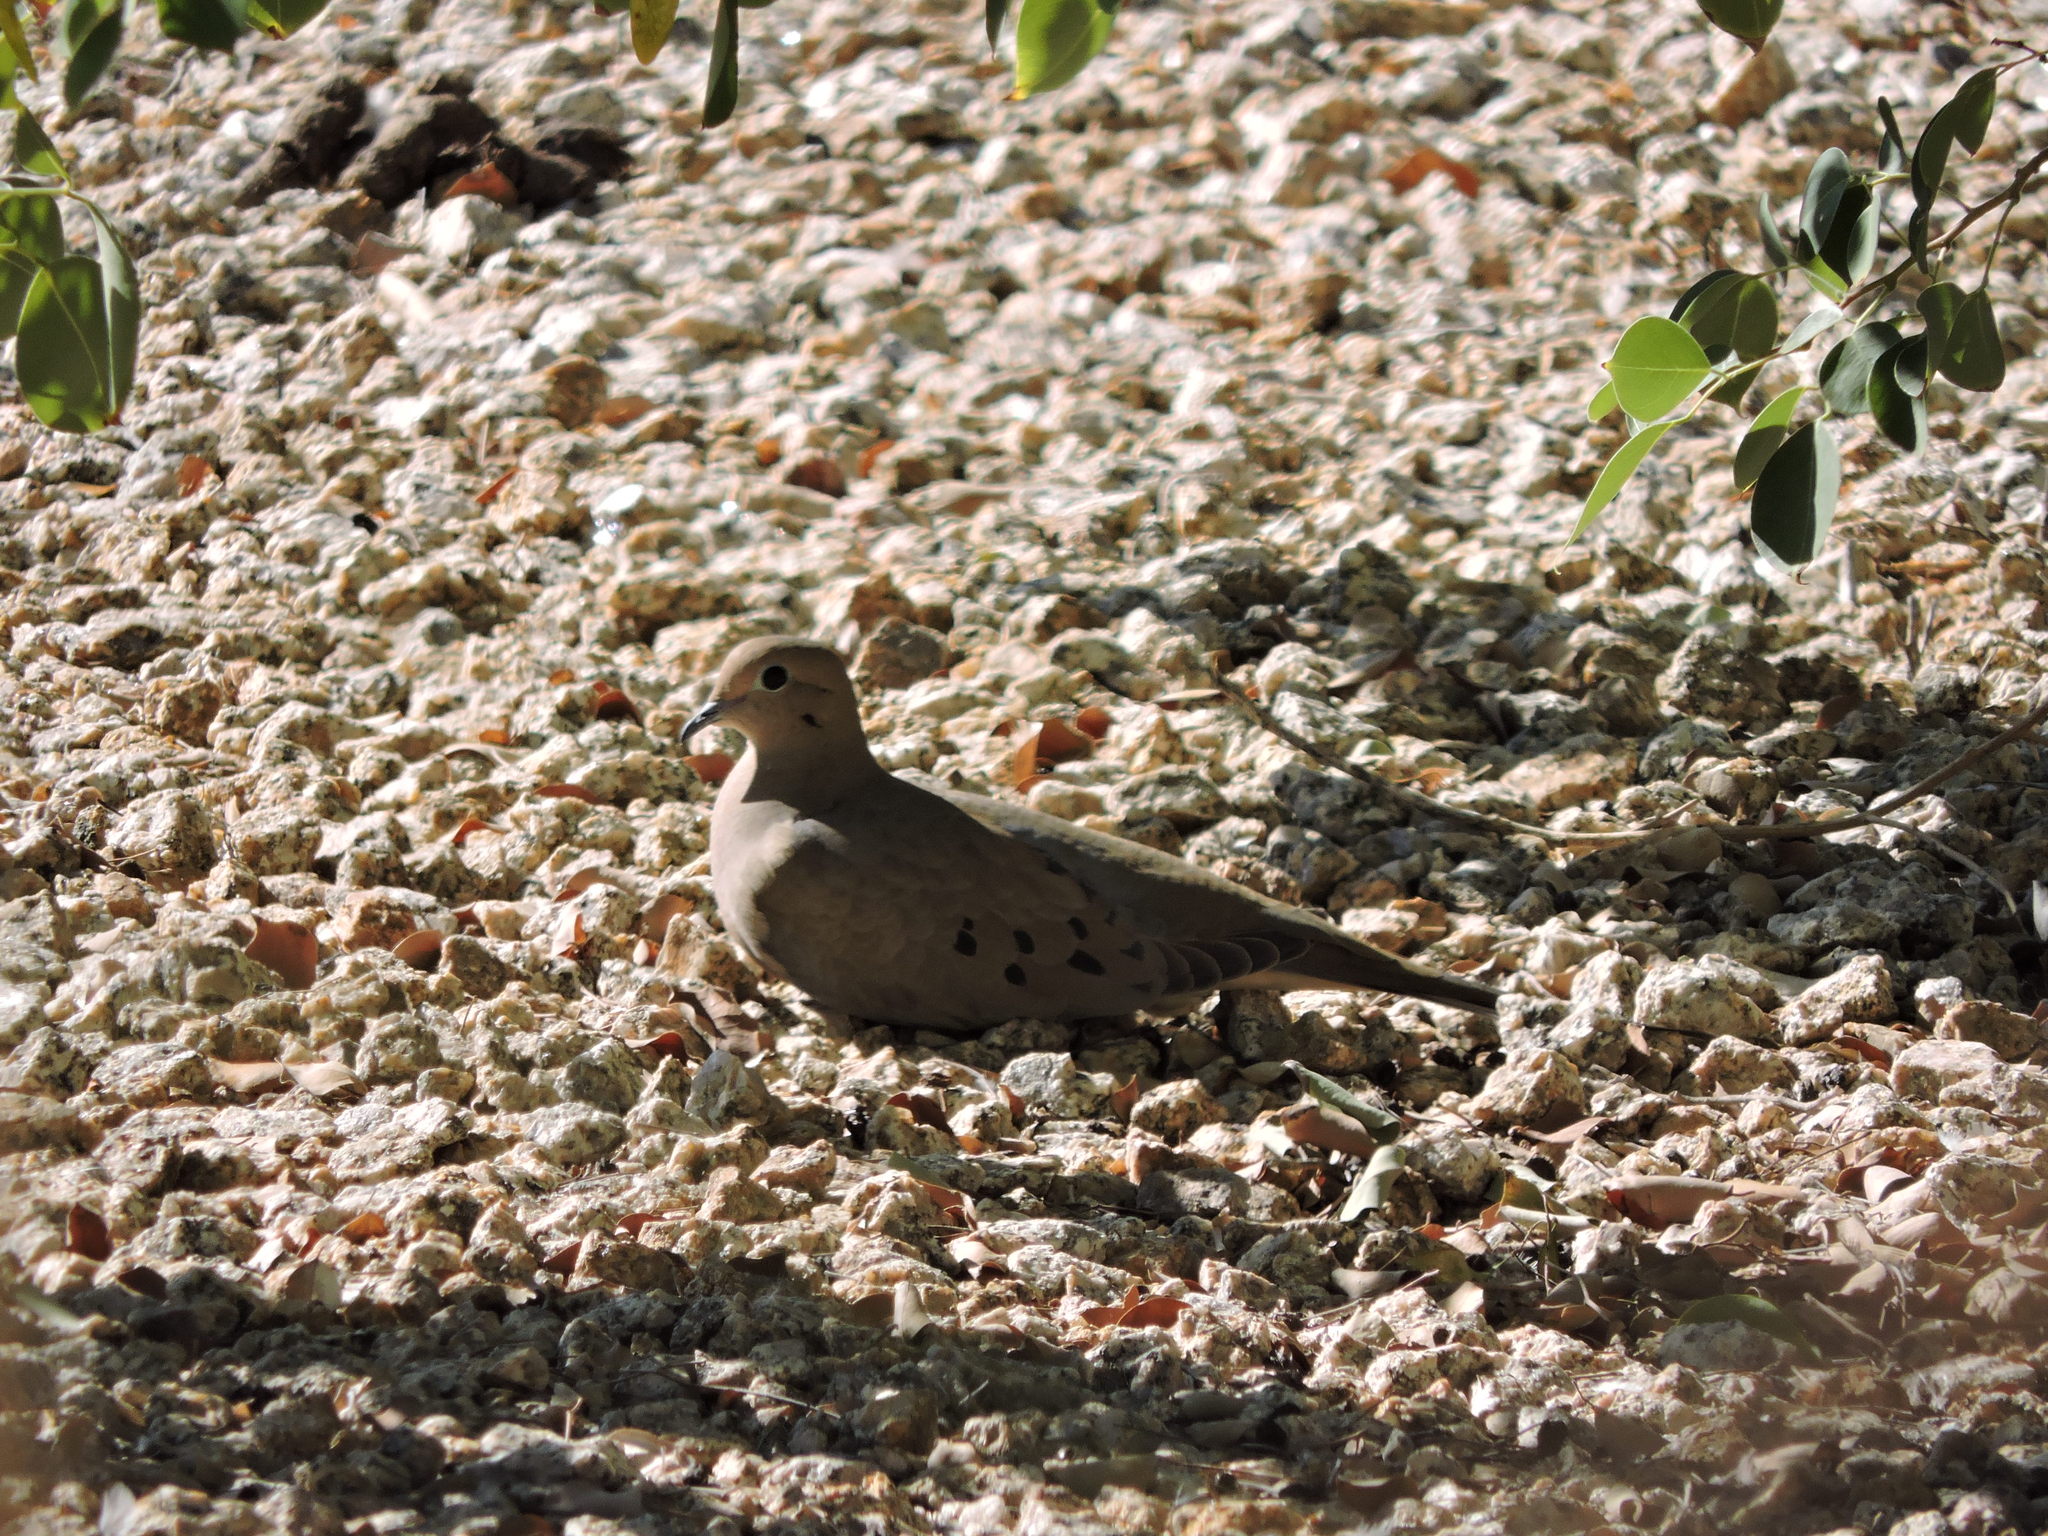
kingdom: Animalia
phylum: Chordata
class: Aves
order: Columbiformes
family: Columbidae
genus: Zenaida
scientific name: Zenaida macroura
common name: Mourning dove
